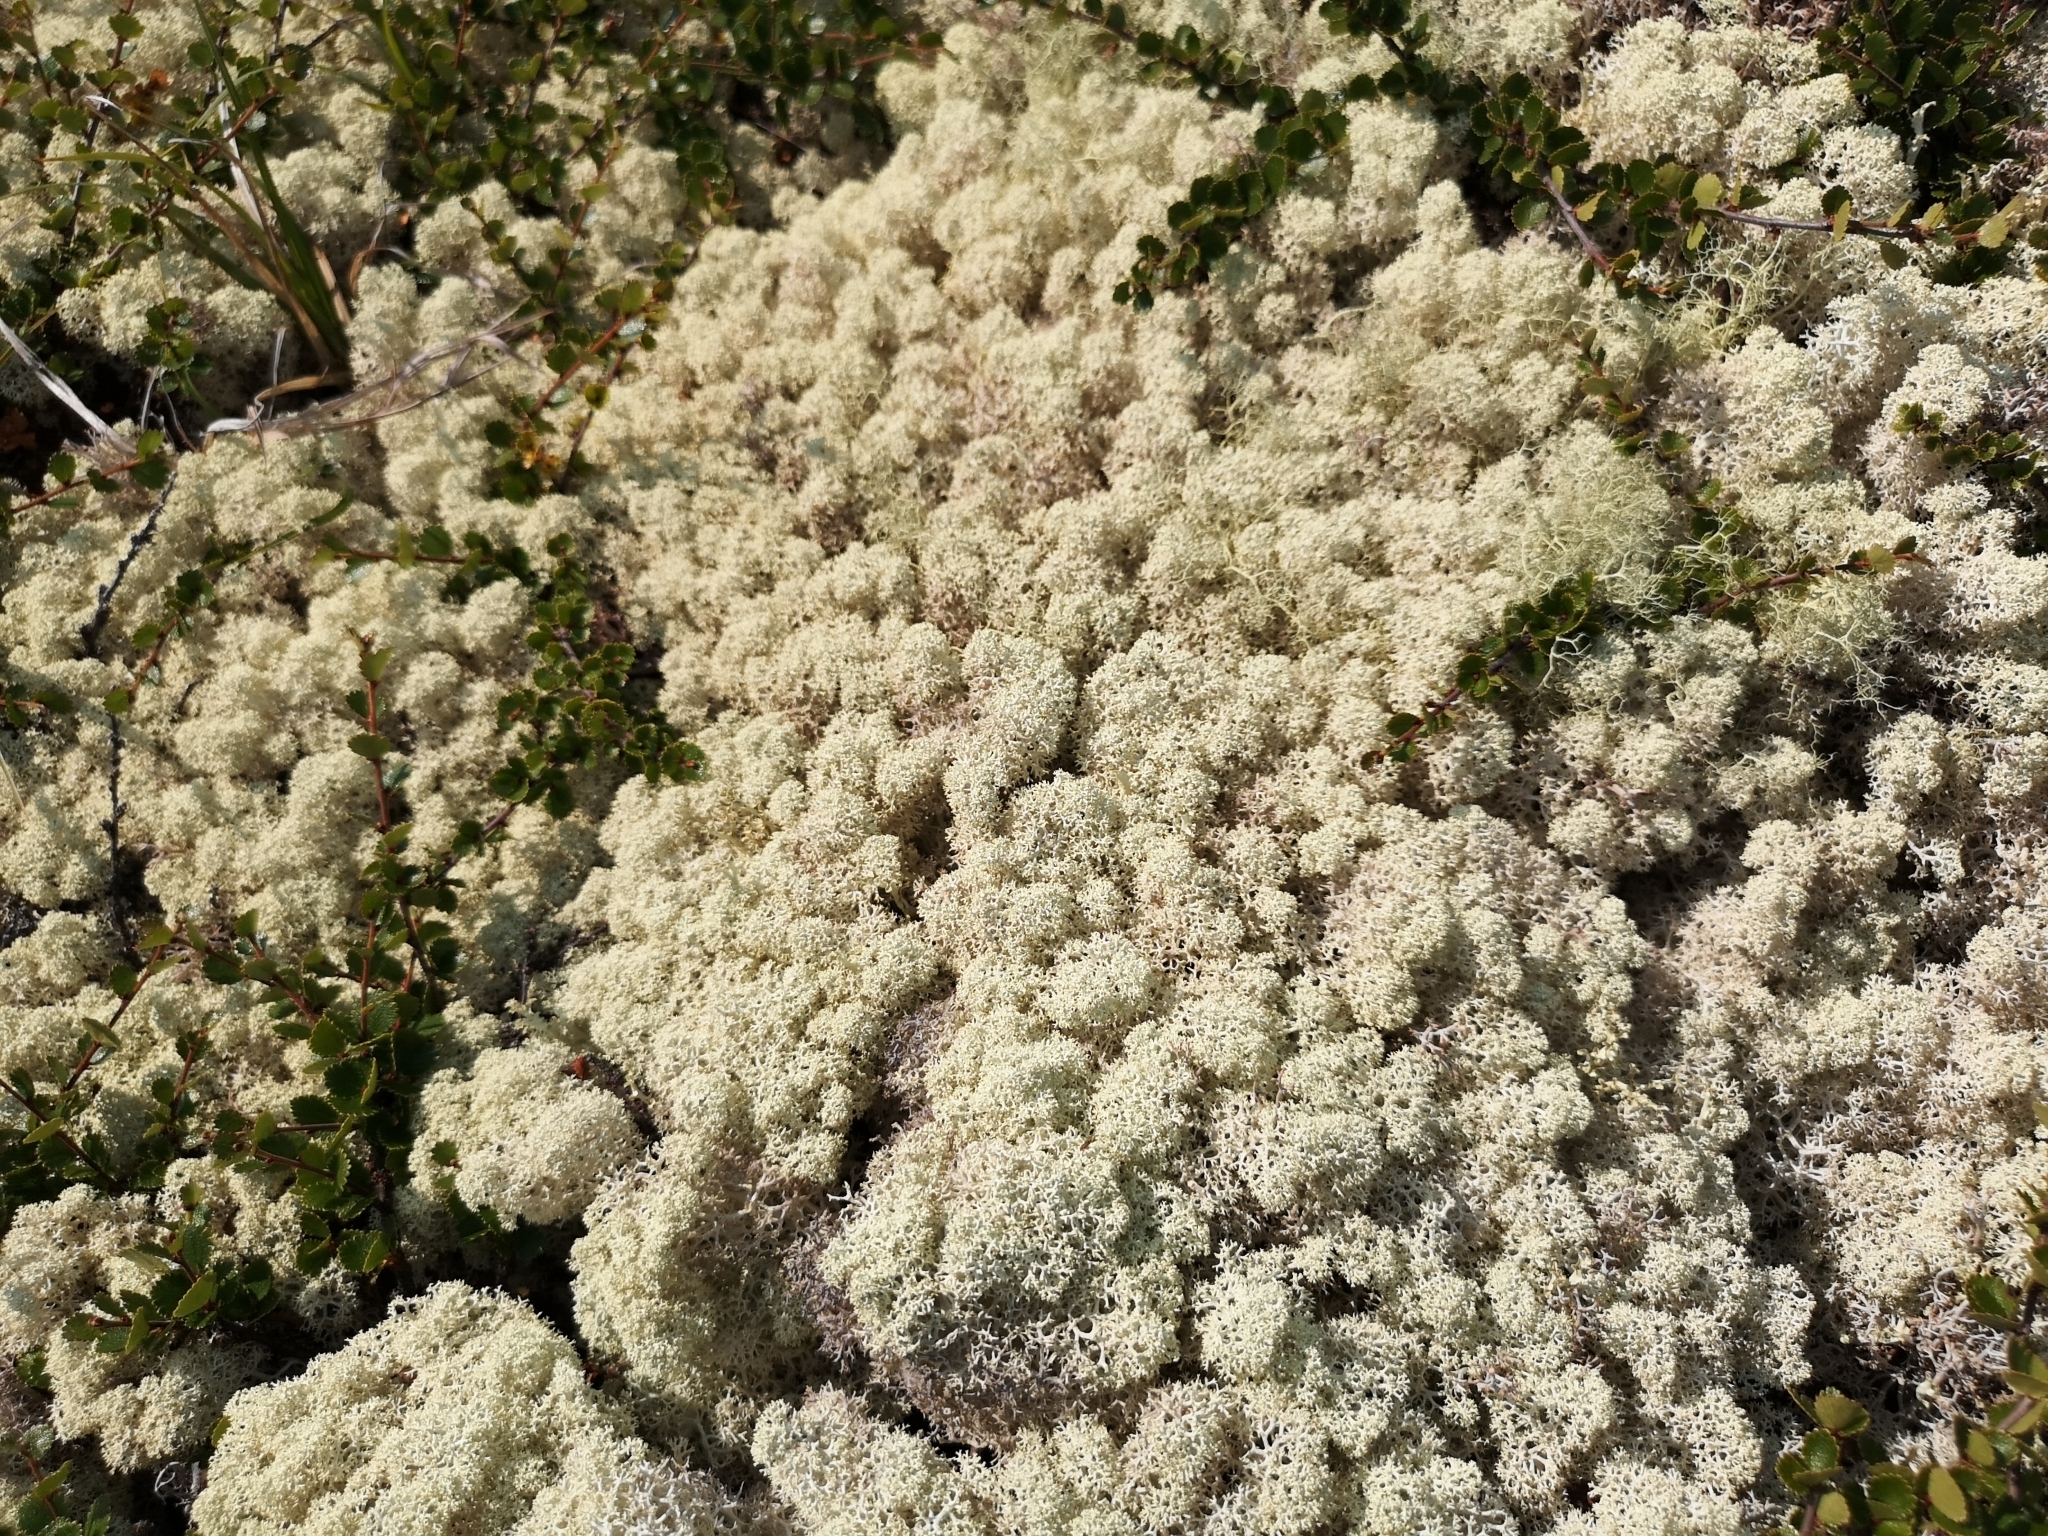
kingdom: Fungi
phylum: Ascomycota
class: Lecanoromycetes
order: Lecanorales
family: Cladoniaceae
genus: Cladonia
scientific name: Cladonia stellaris
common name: Star-tipped reindeer lichen
